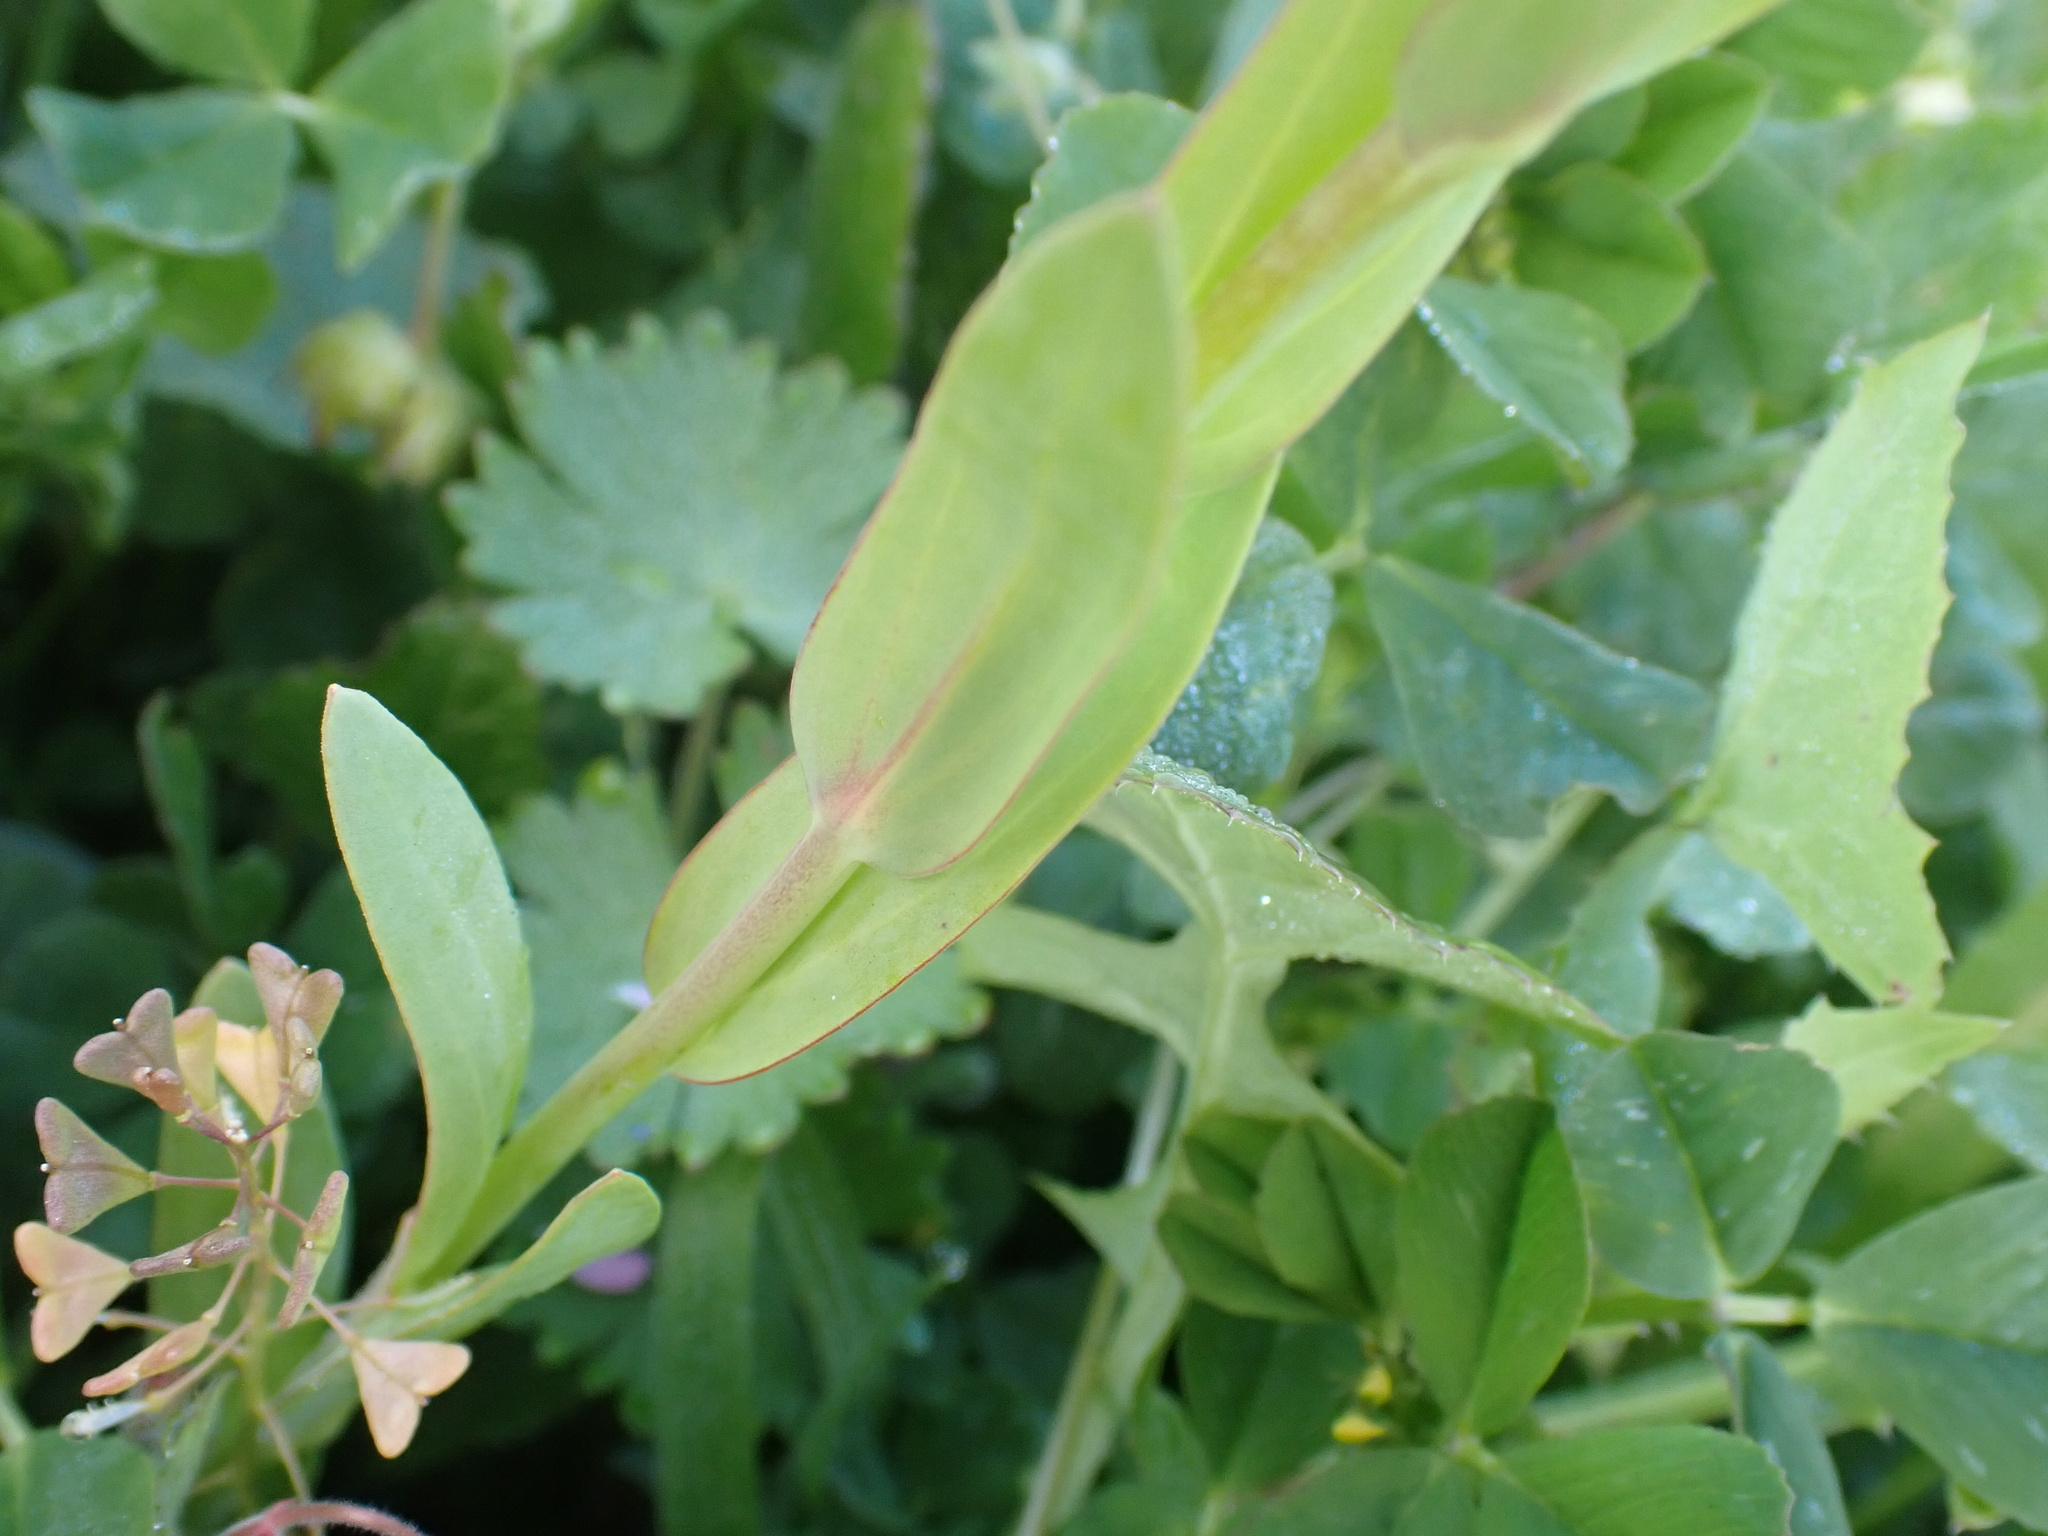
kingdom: Plantae
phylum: Tracheophyta
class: Magnoliopsida
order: Lamiales
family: Plantaginaceae
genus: Linaria
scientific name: Linaria hirta
